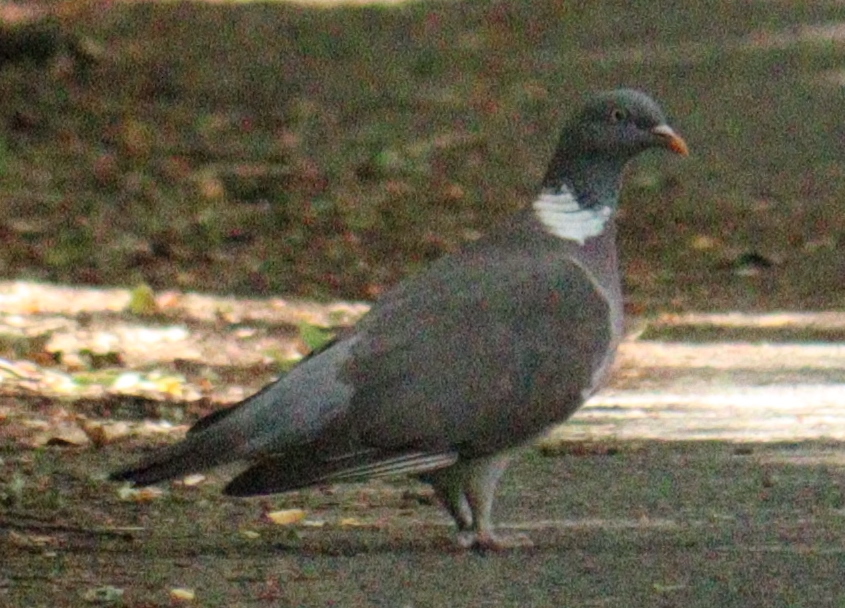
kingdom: Animalia
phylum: Chordata
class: Aves
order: Columbiformes
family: Columbidae
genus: Columba
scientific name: Columba palumbus
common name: Common wood pigeon
